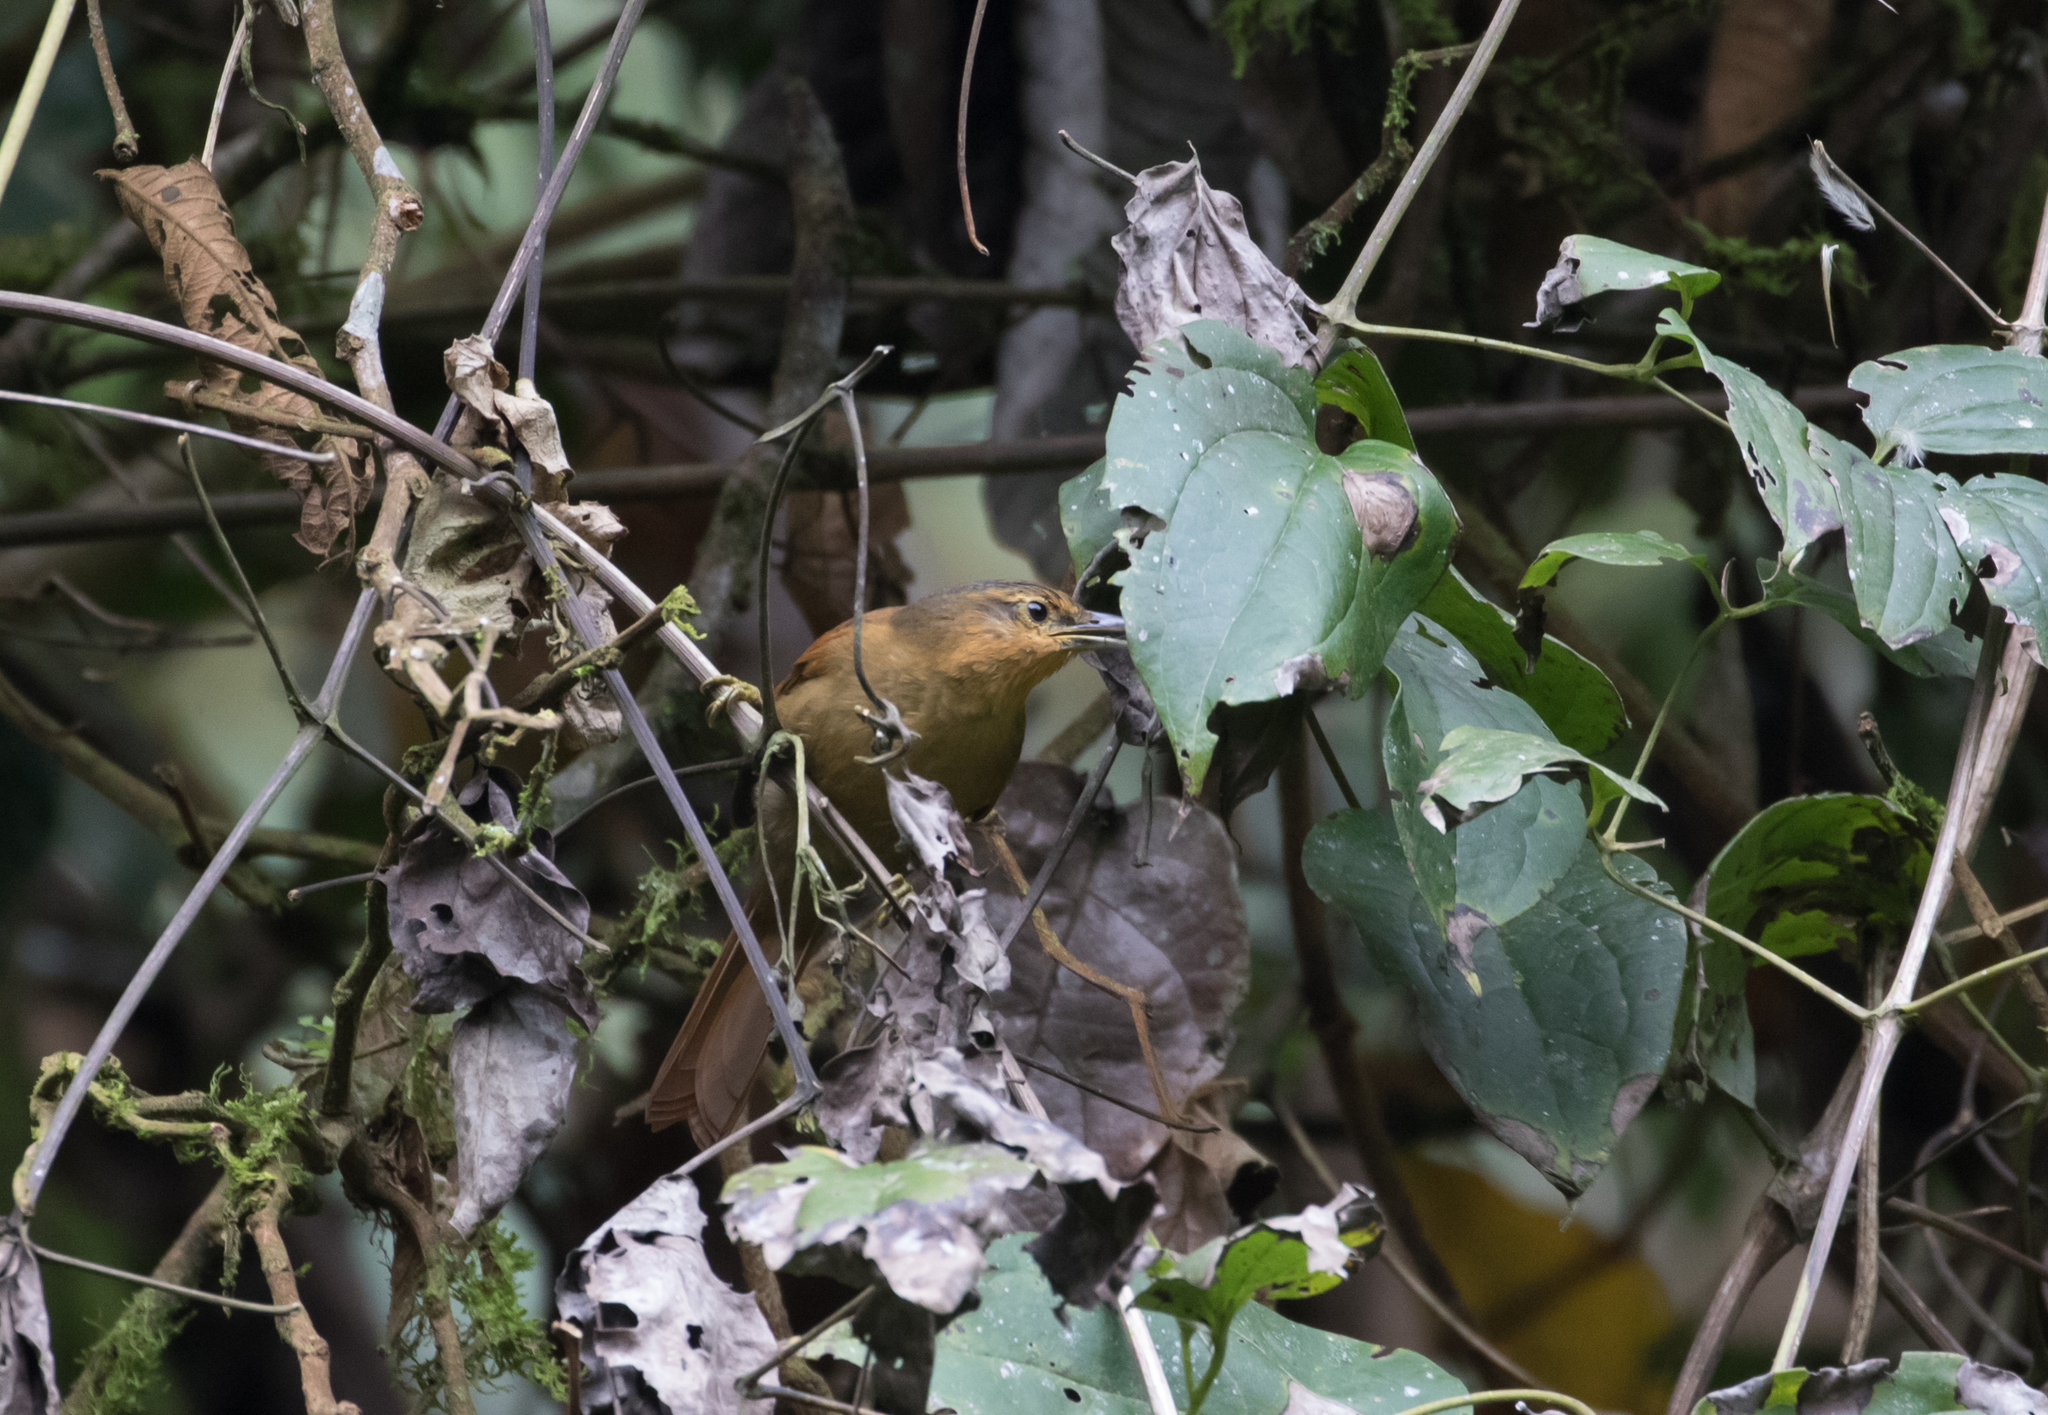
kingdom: Animalia
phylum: Chordata
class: Aves
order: Passeriformes
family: Furnariidae
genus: Philydor
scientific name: Philydor rufum
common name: Buff-fronted foliage-gleaner
